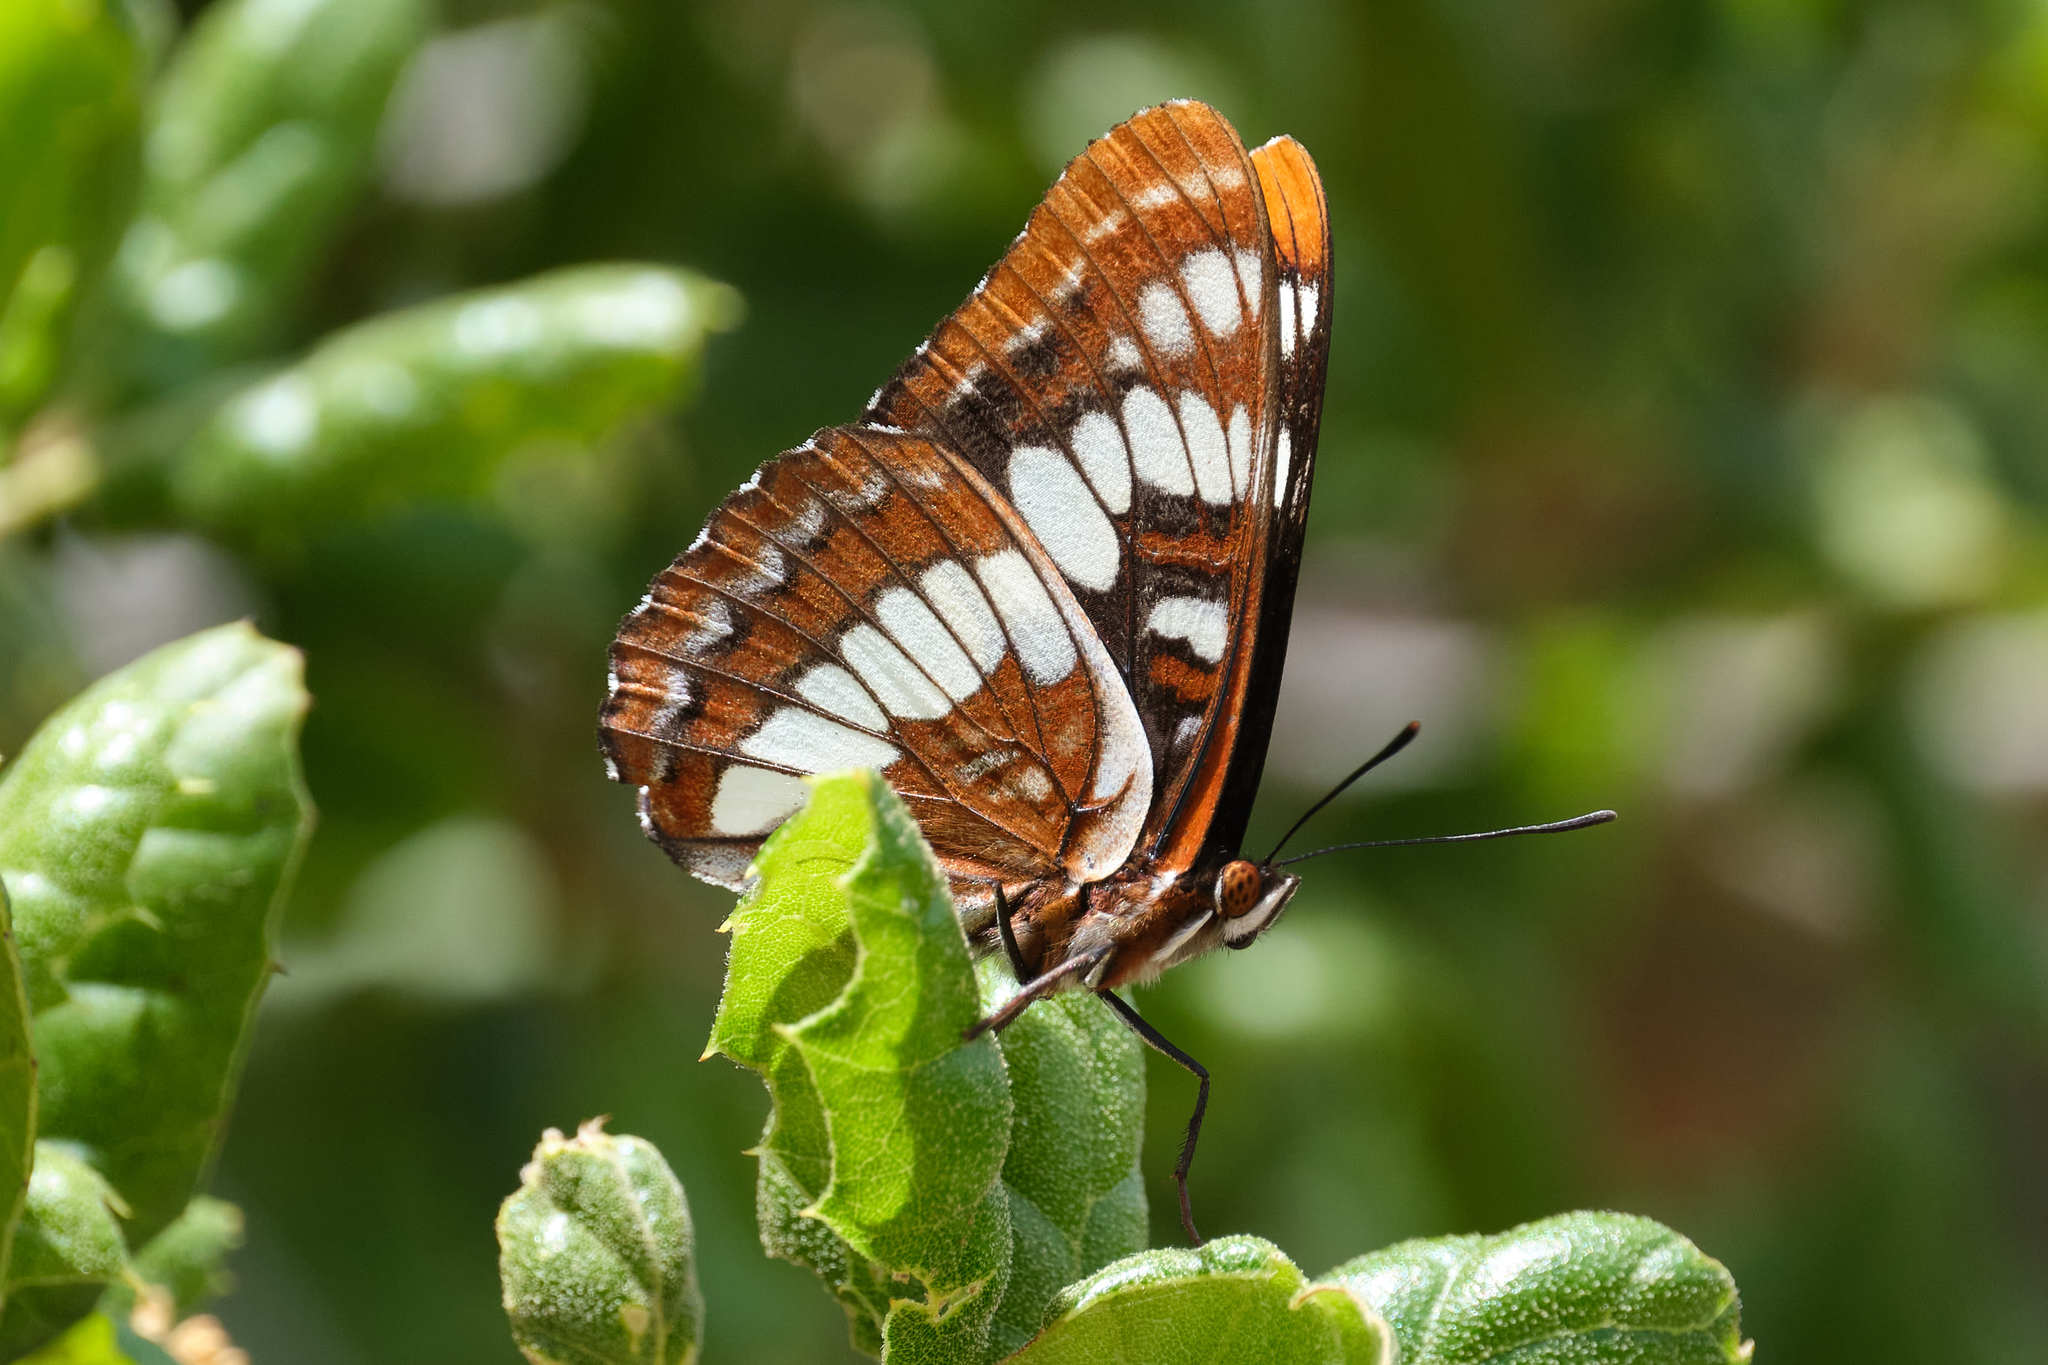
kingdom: Animalia
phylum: Arthropoda
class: Insecta
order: Lepidoptera
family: Nymphalidae
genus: Limenitis
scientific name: Limenitis lorquini
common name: Lorquin's admiral
